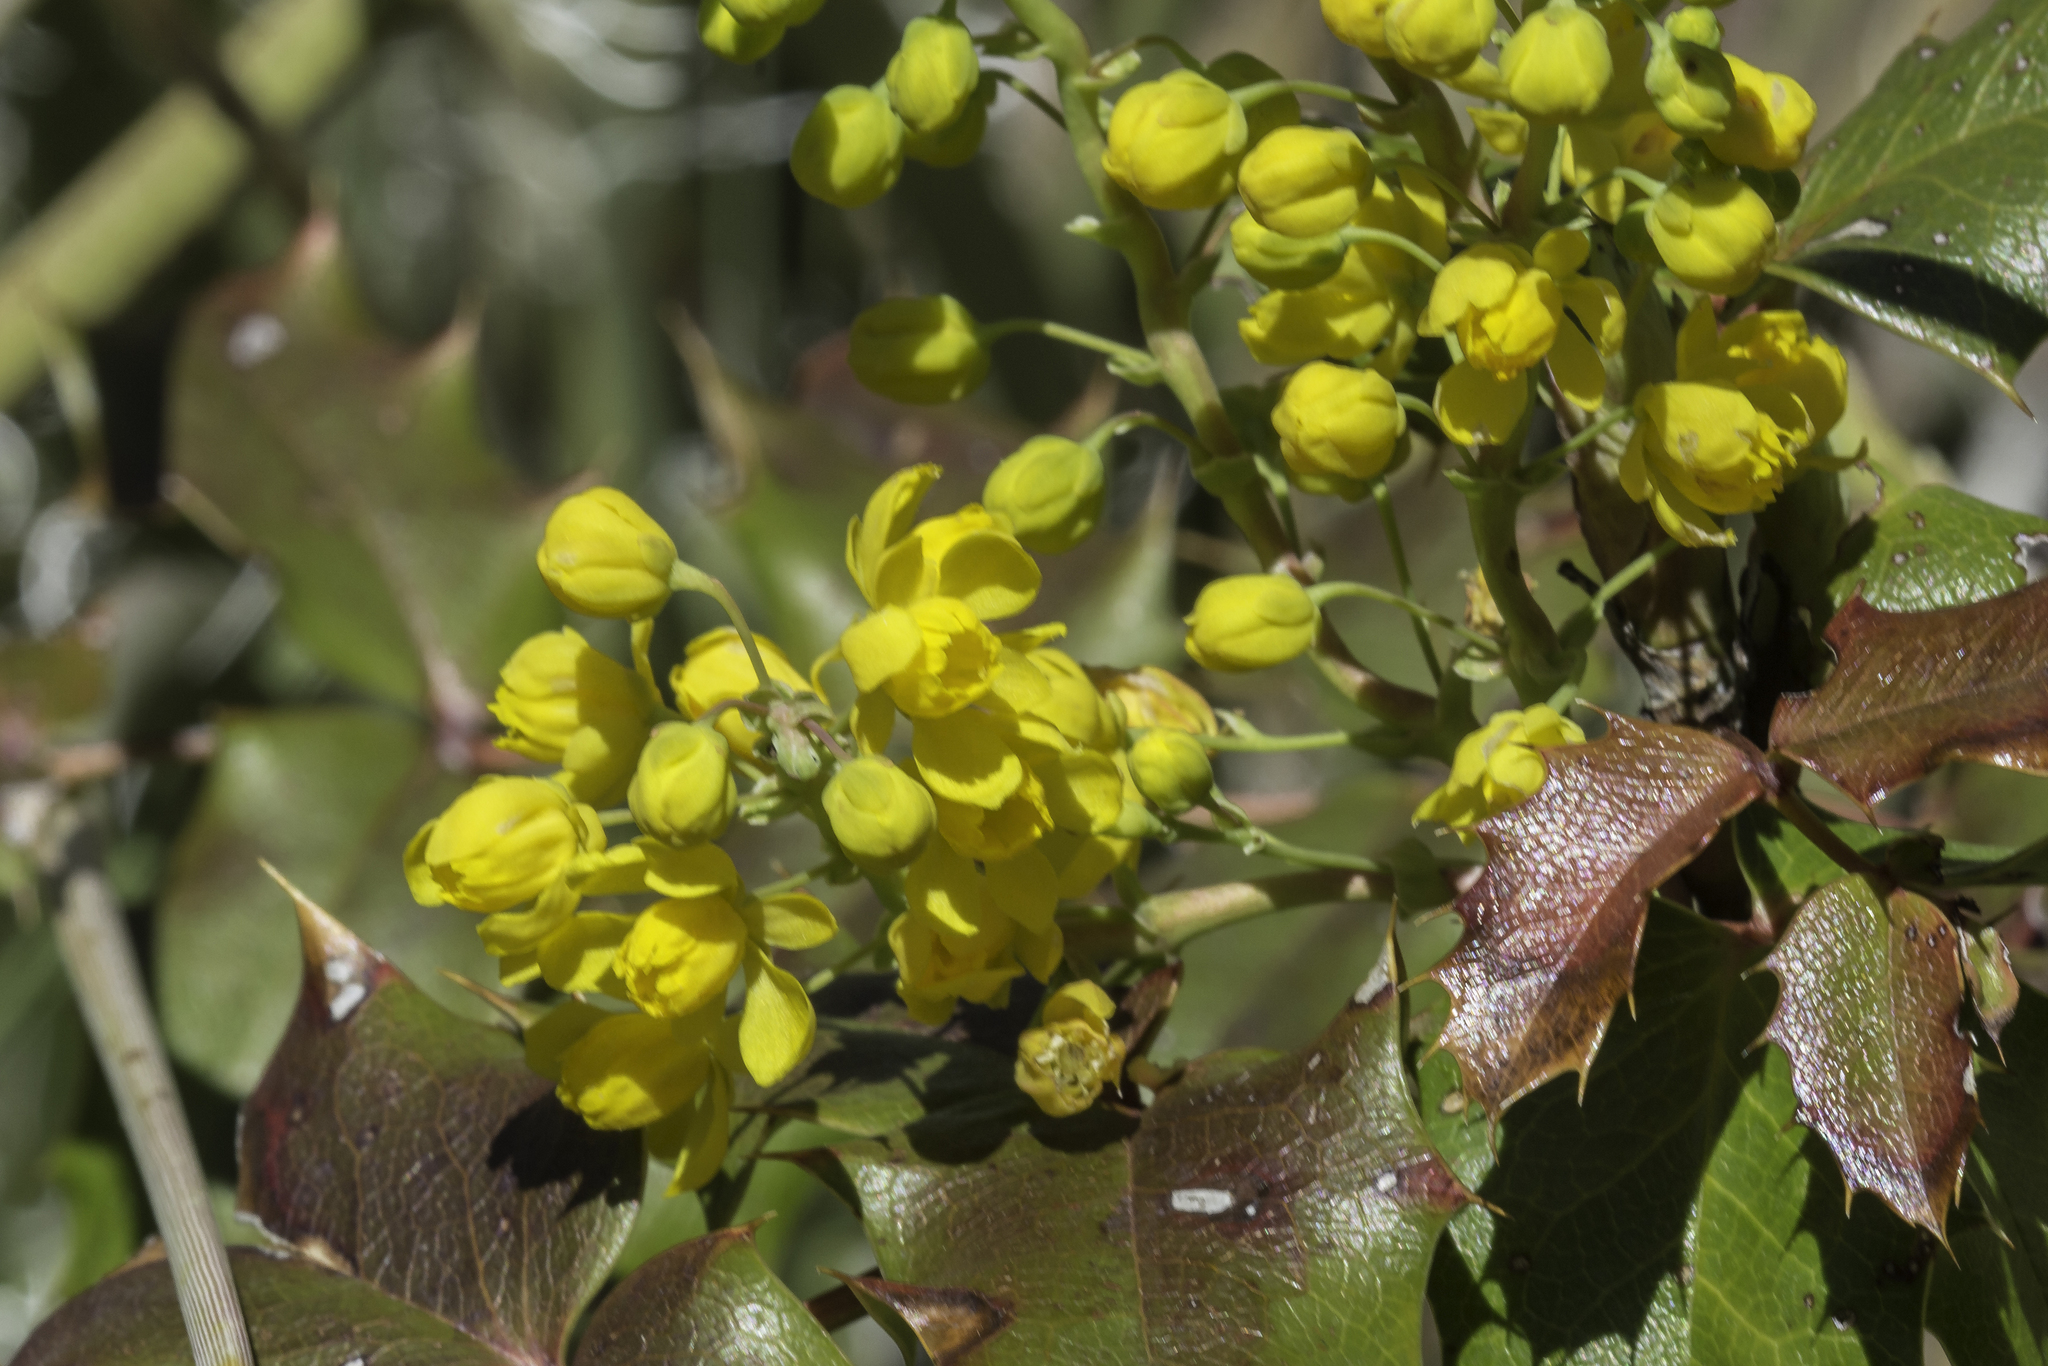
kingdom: Plantae
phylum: Tracheophyta
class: Magnoliopsida
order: Ranunculales
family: Berberidaceae
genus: Mahonia
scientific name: Mahonia aquifolium
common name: Oregon-grape
